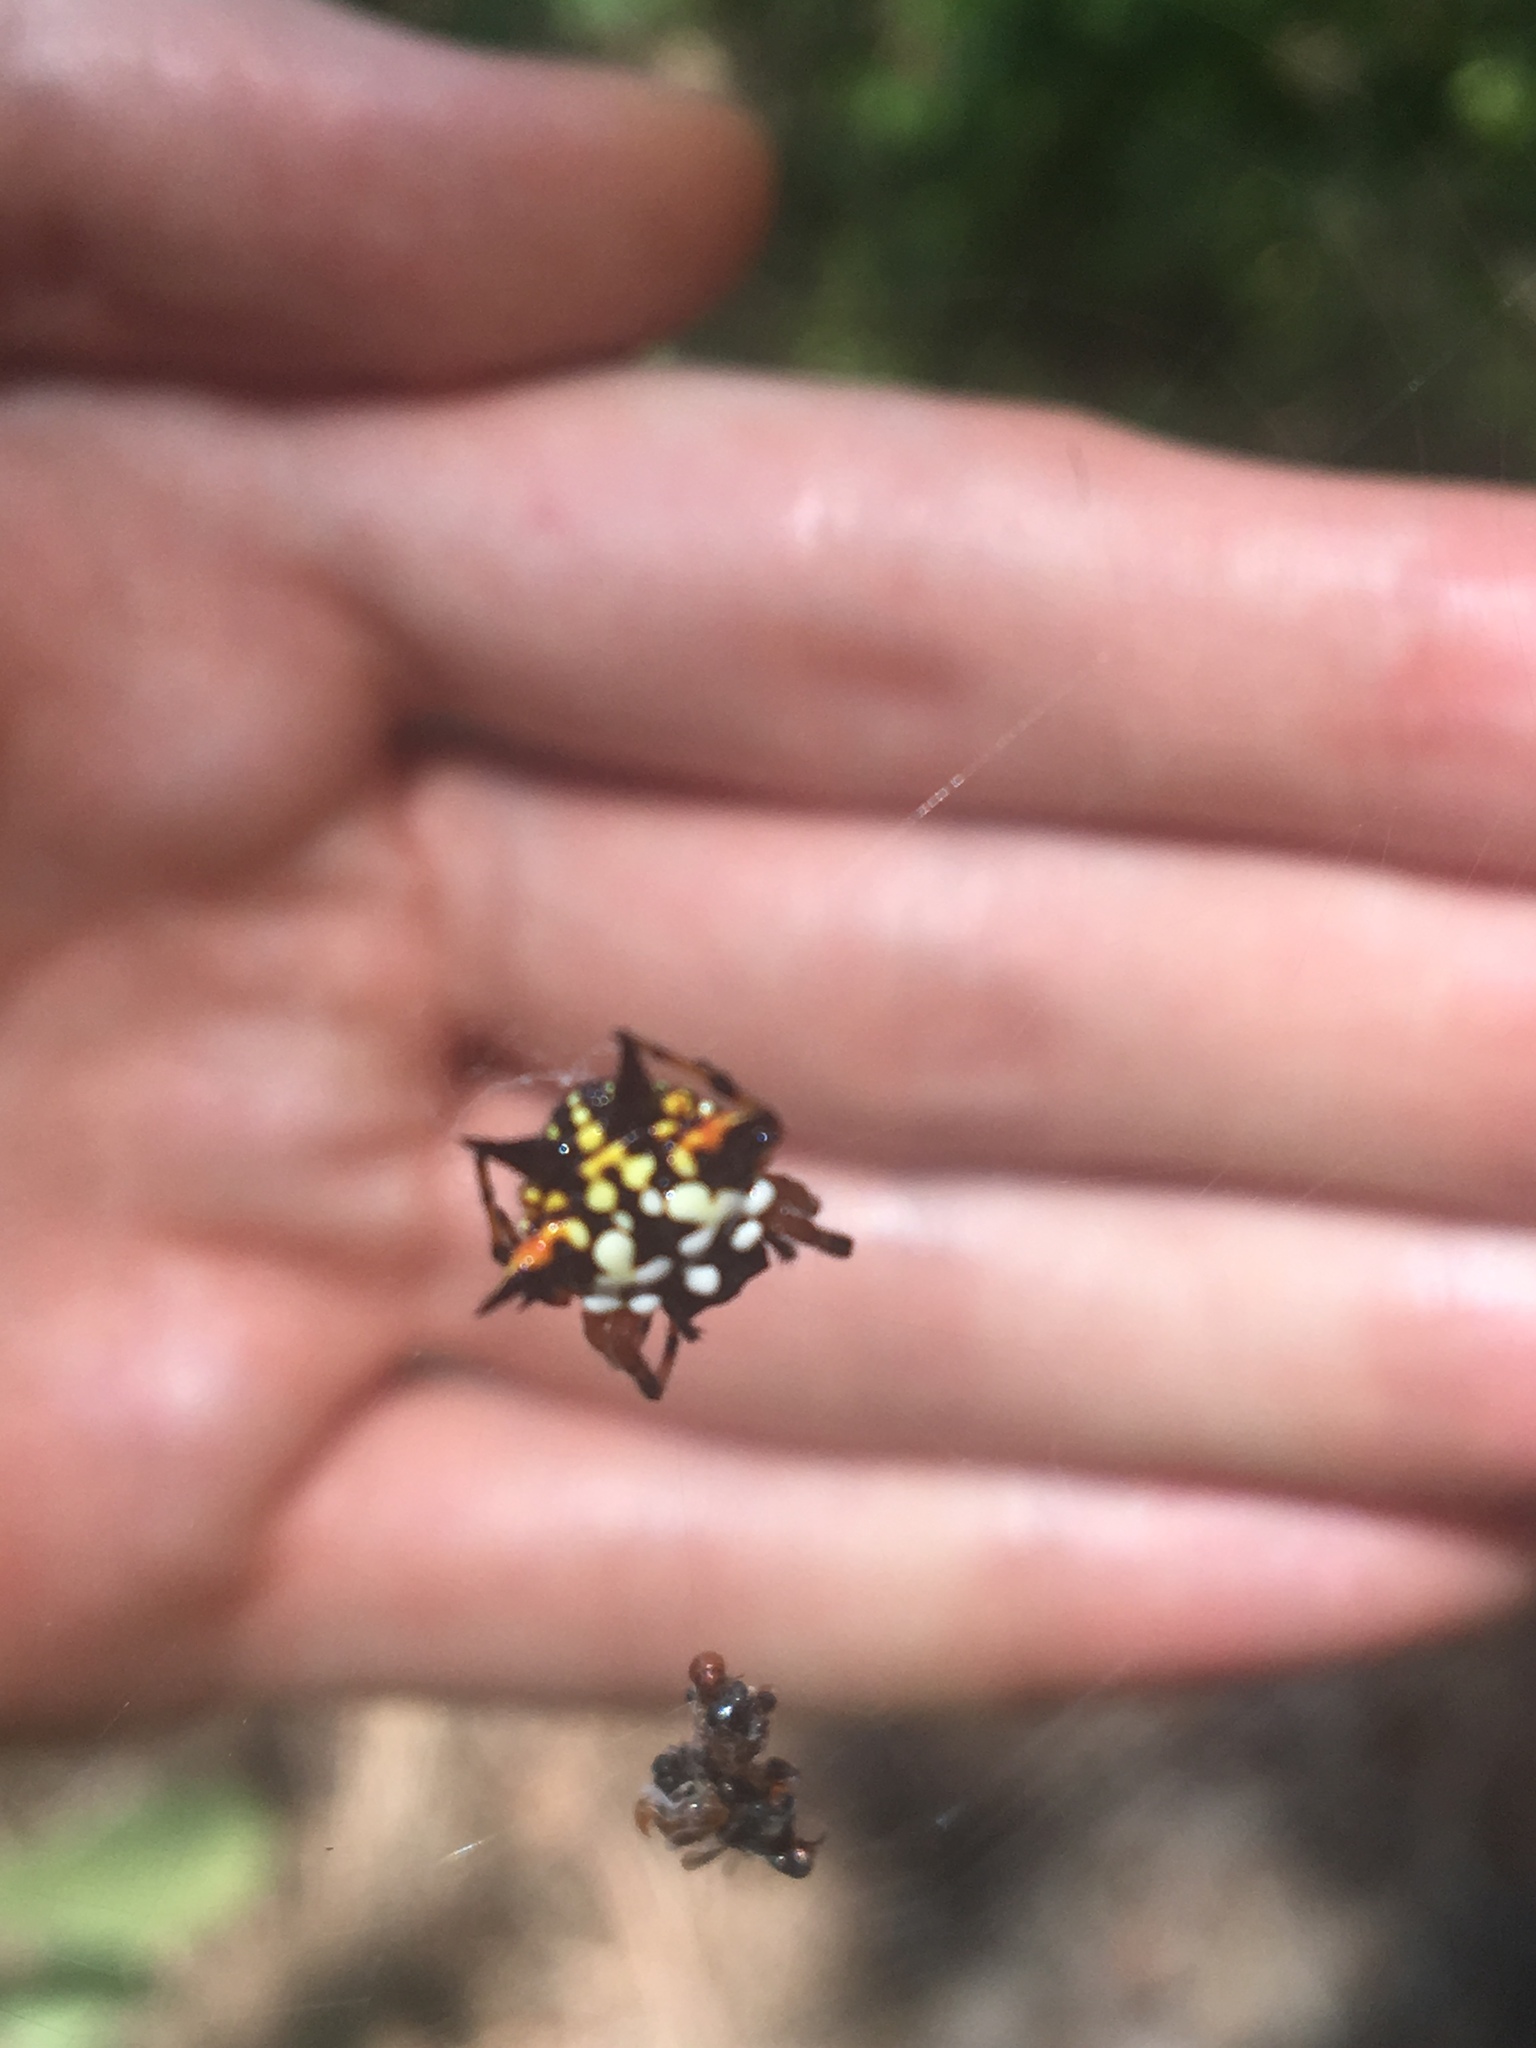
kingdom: Animalia
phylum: Arthropoda
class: Arachnida
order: Araneae
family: Araneidae
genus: Austracantha
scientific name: Austracantha minax
